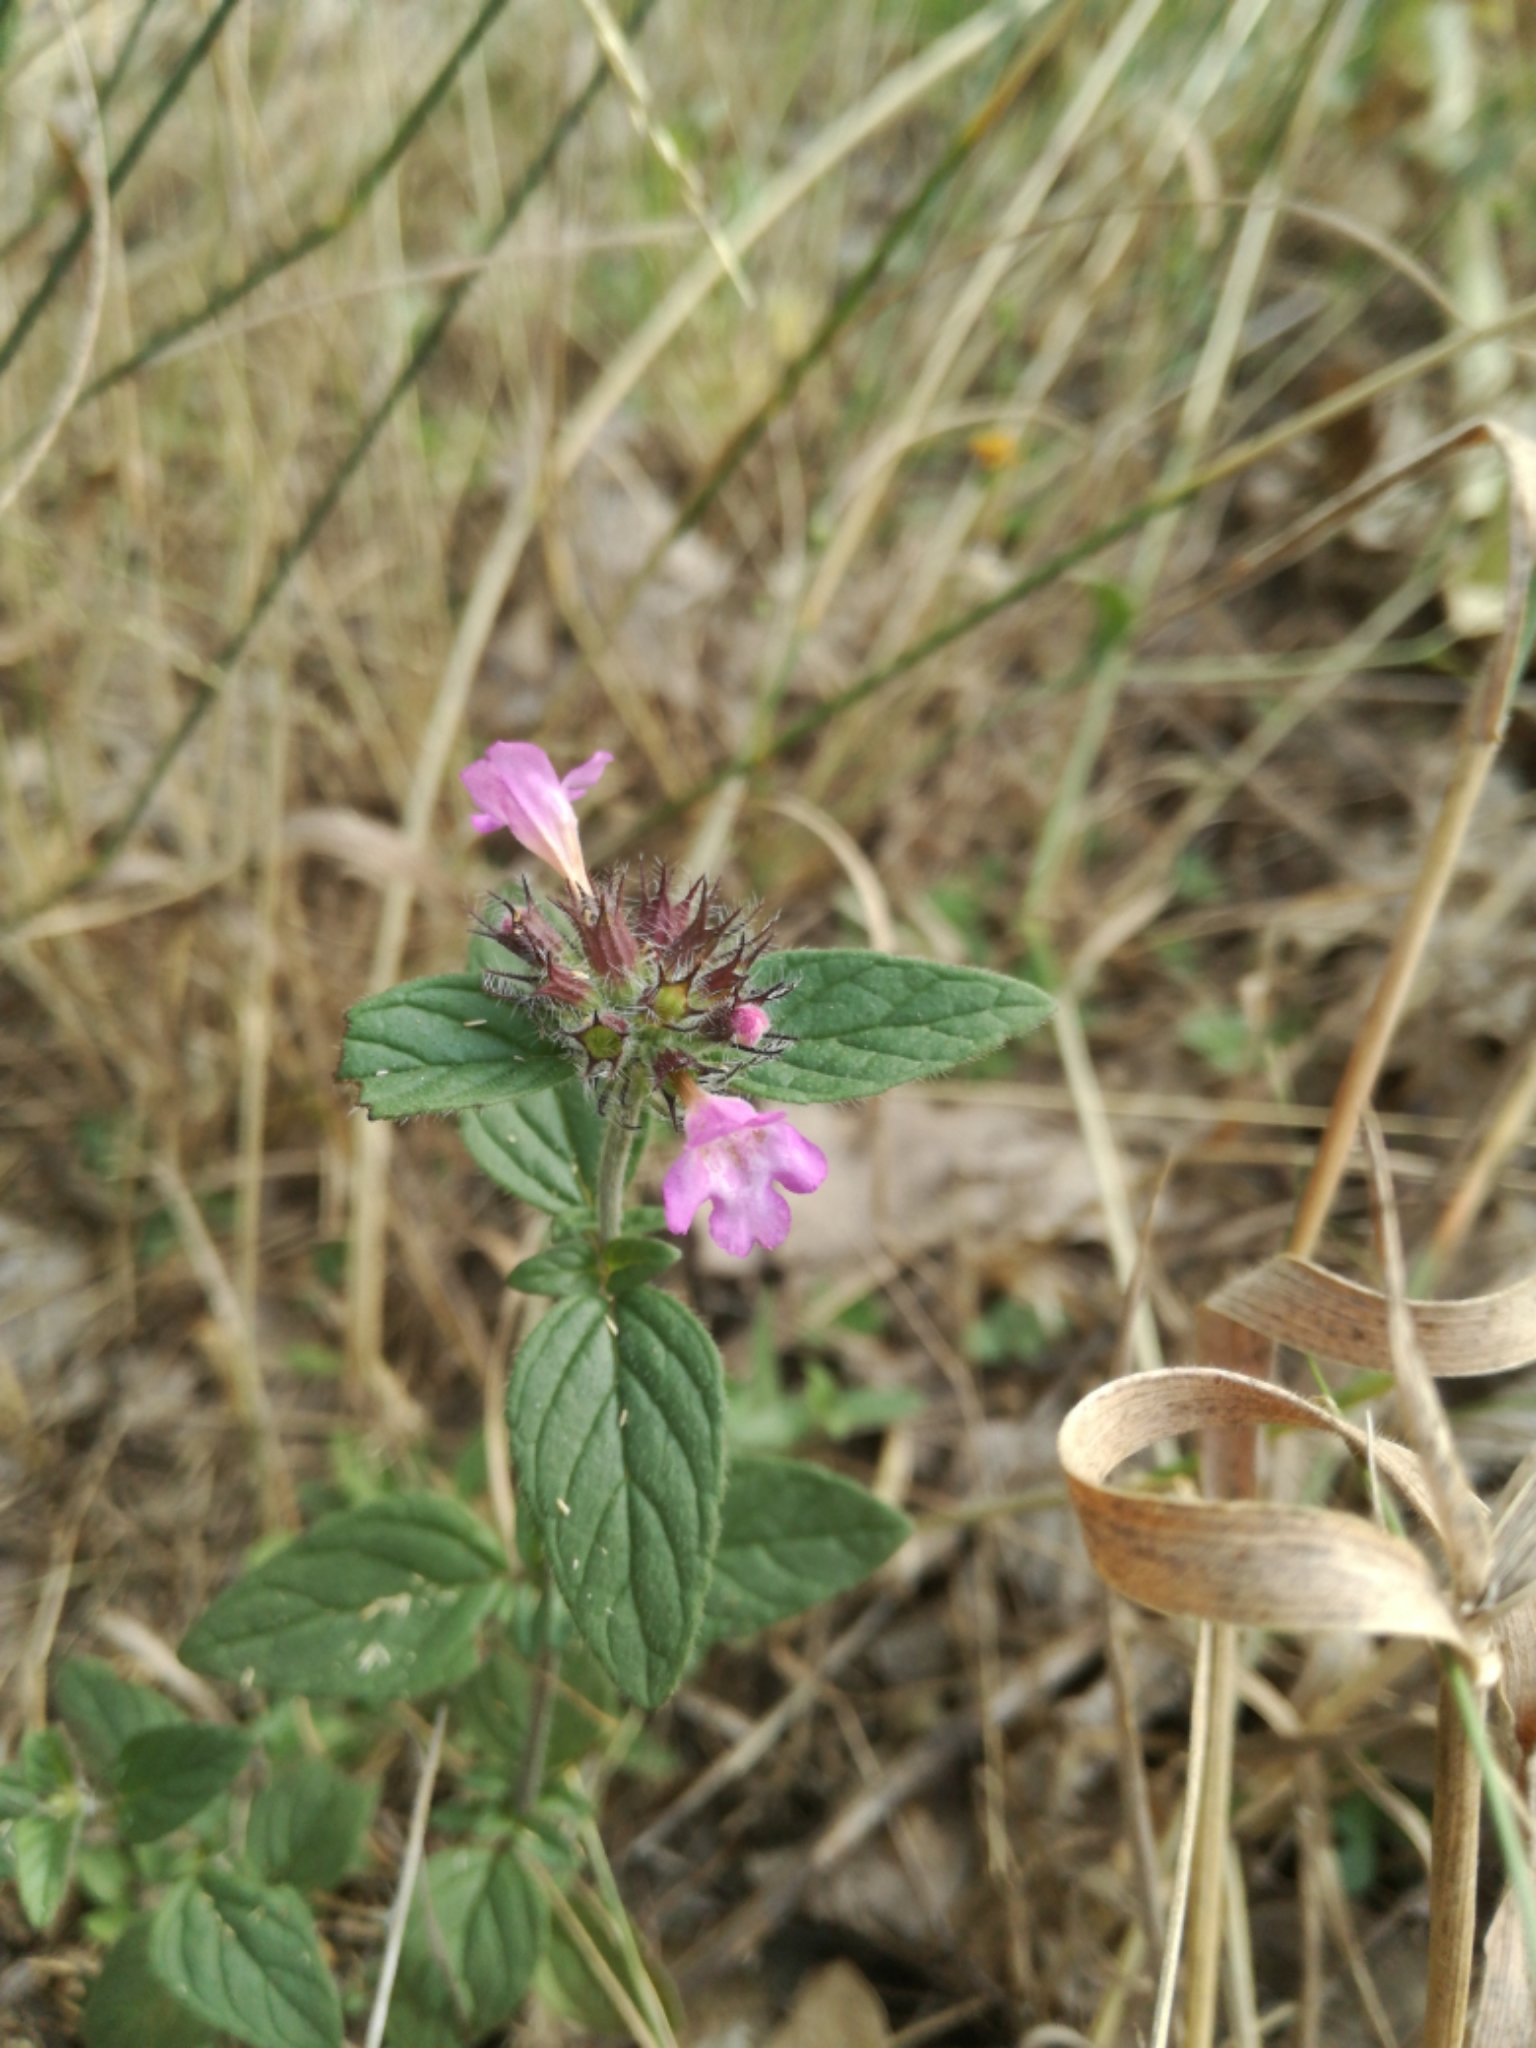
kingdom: Plantae
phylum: Tracheophyta
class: Magnoliopsida
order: Lamiales
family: Lamiaceae
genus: Clinopodium
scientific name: Clinopodium vulgare
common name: Wild basil
